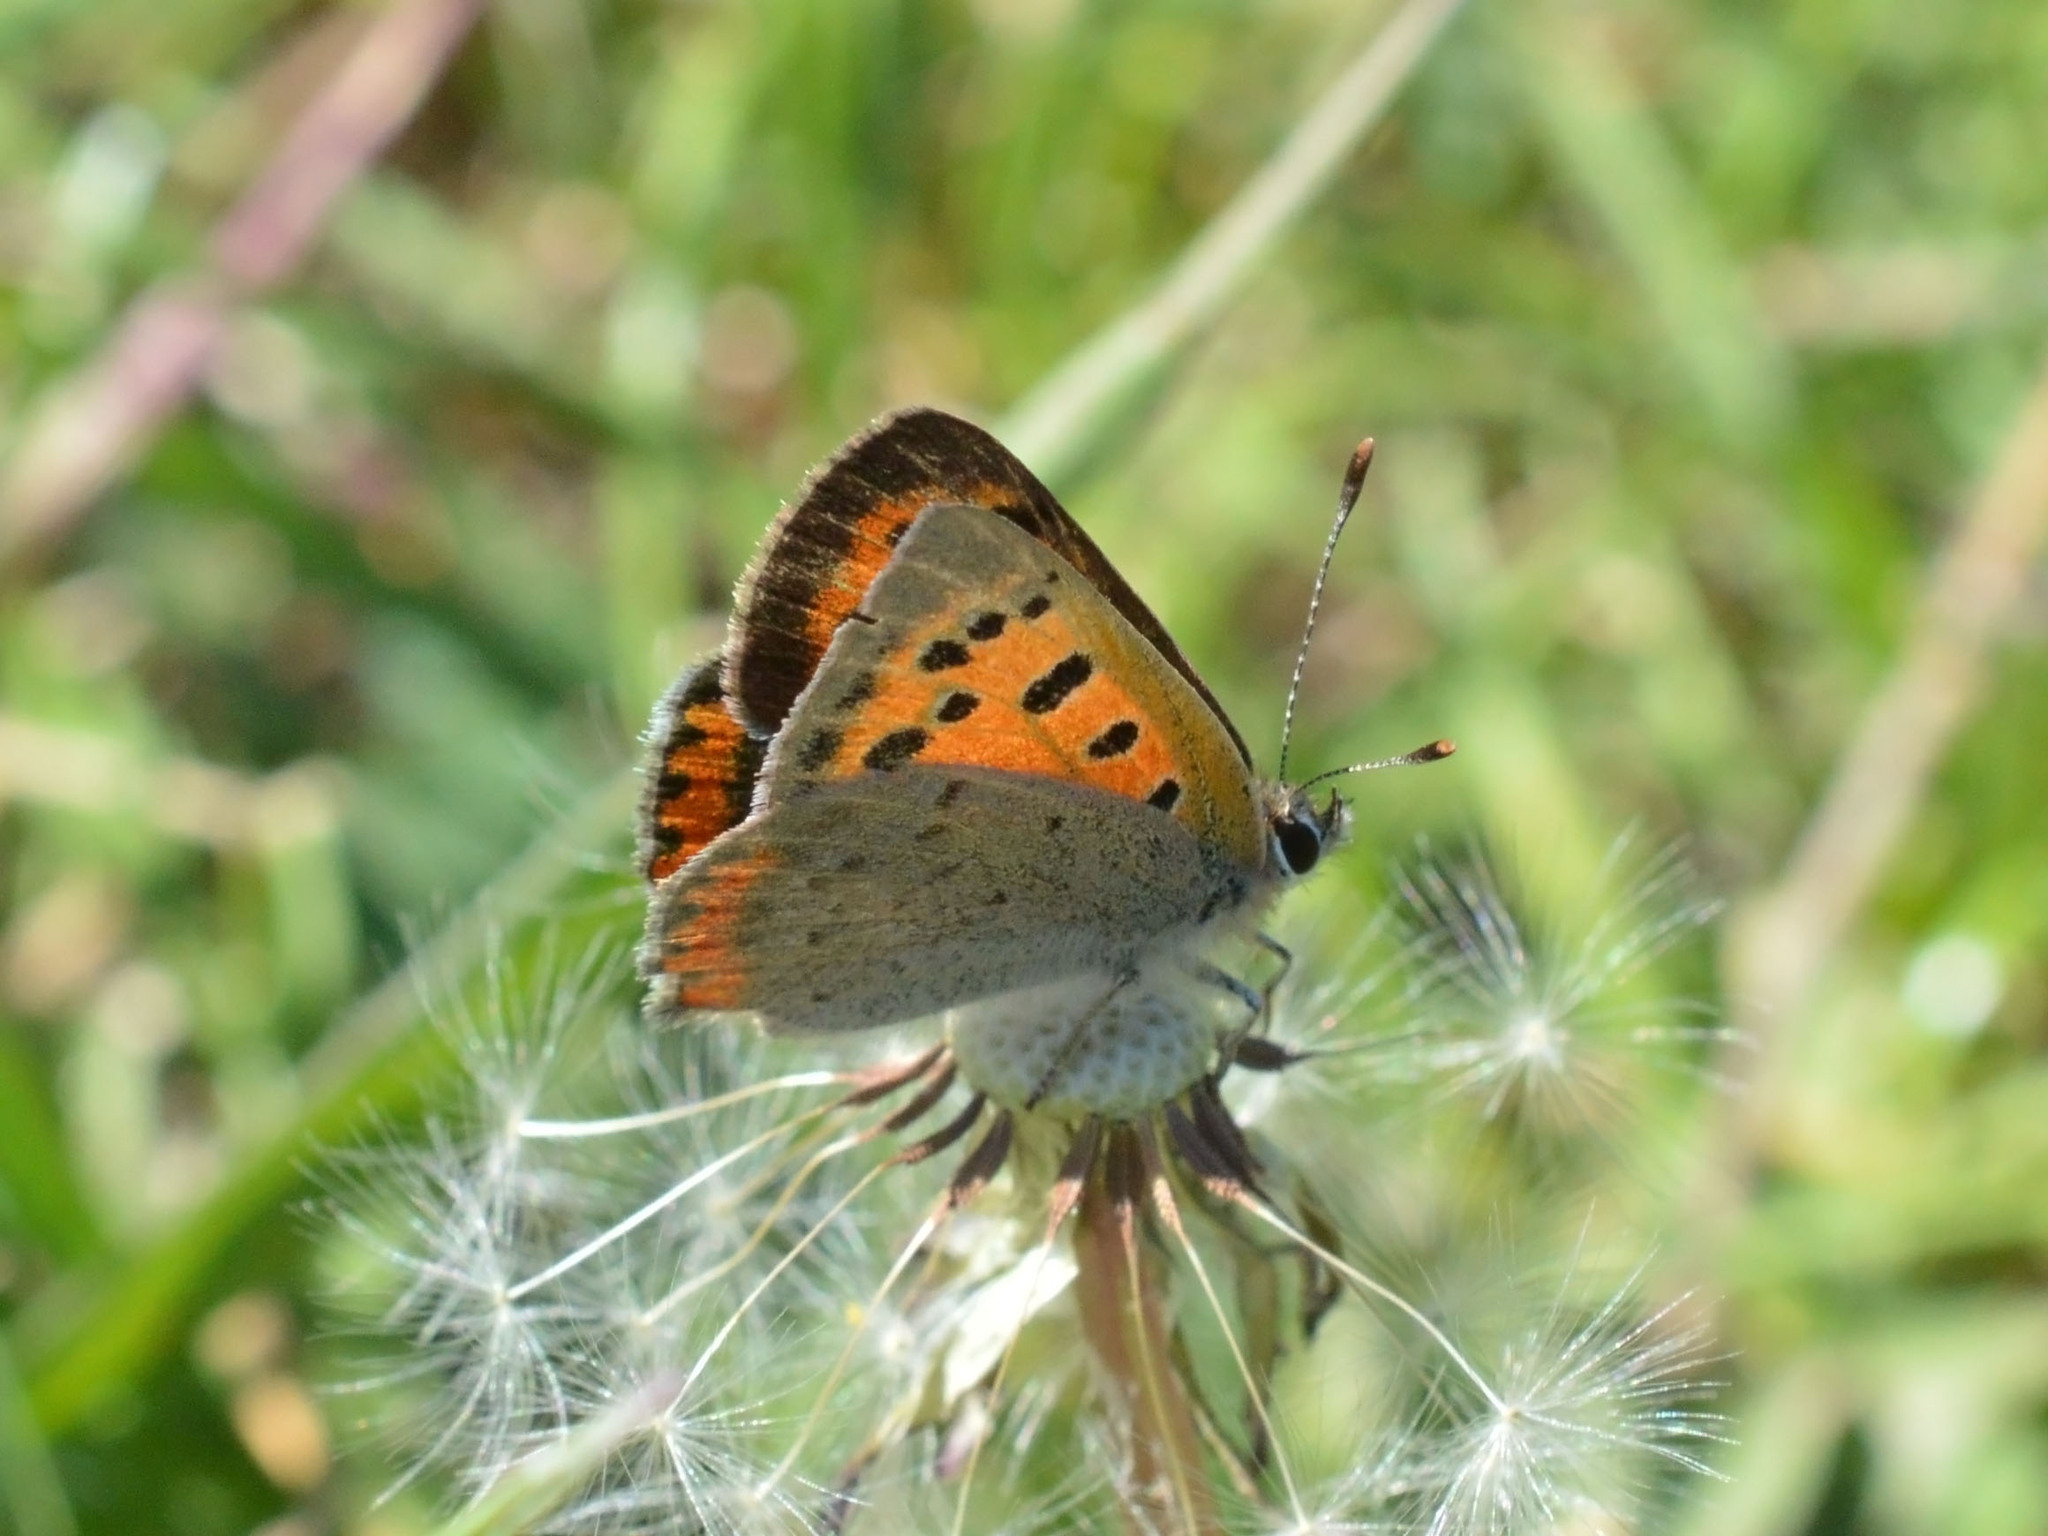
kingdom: Animalia
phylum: Arthropoda
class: Insecta
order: Lepidoptera
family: Lycaenidae
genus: Lycaena
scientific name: Lycaena phlaeas
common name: Small copper
